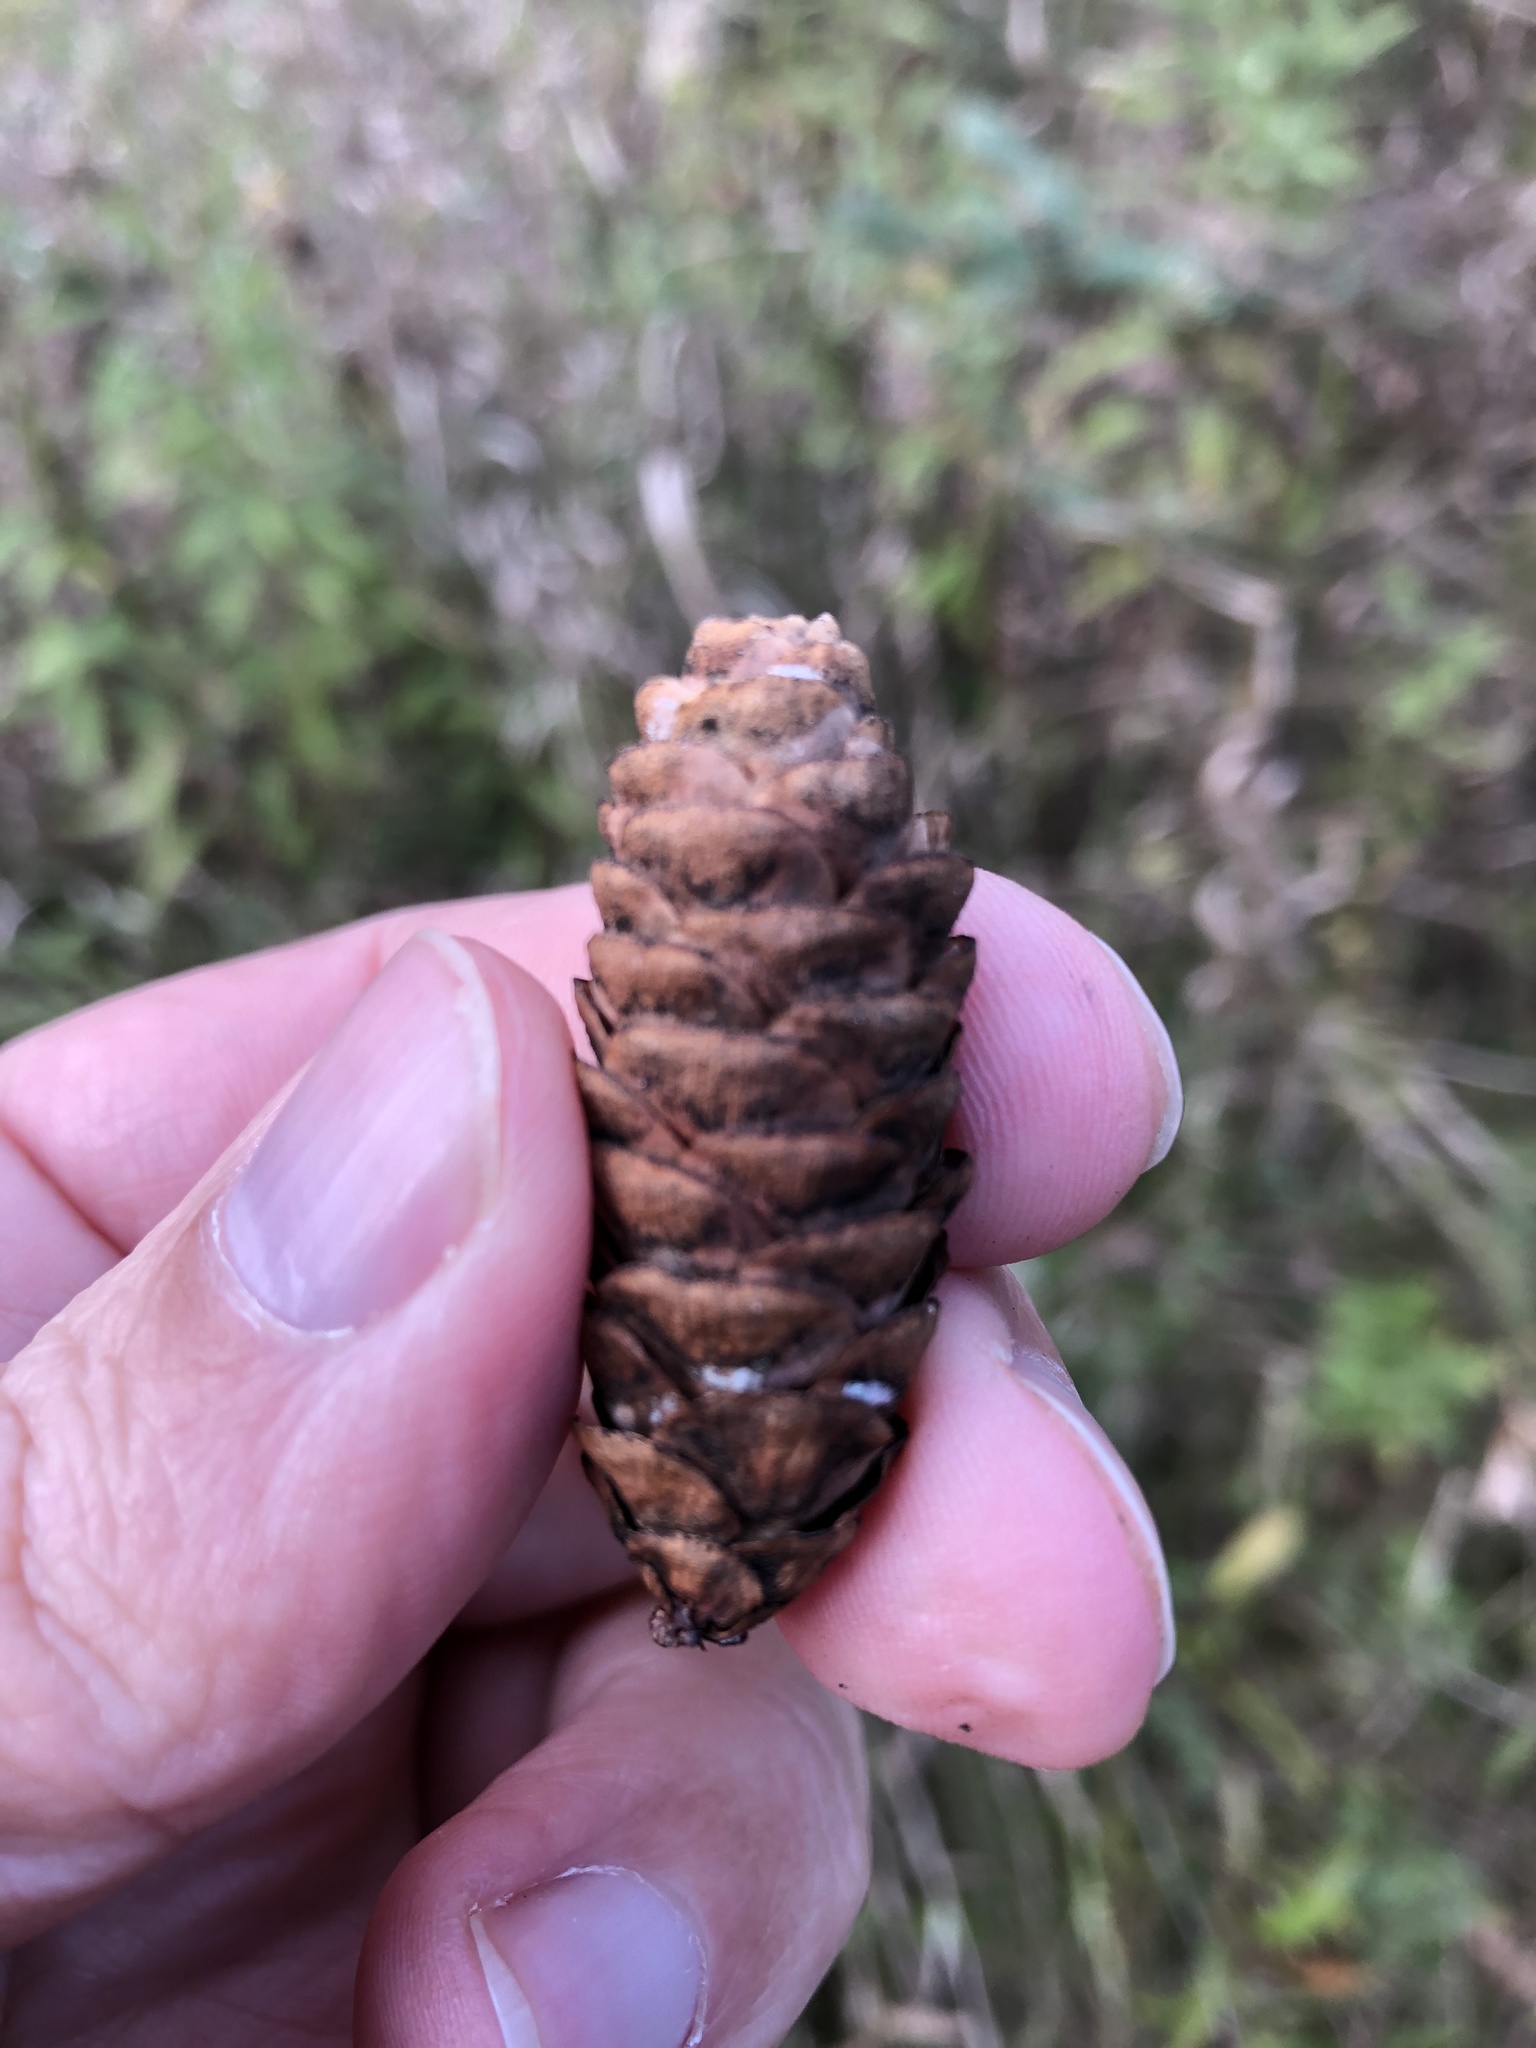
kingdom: Plantae
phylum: Tracheophyta
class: Pinopsida
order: Pinales
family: Pinaceae
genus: Picea
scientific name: Picea glauca
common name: White spruce
